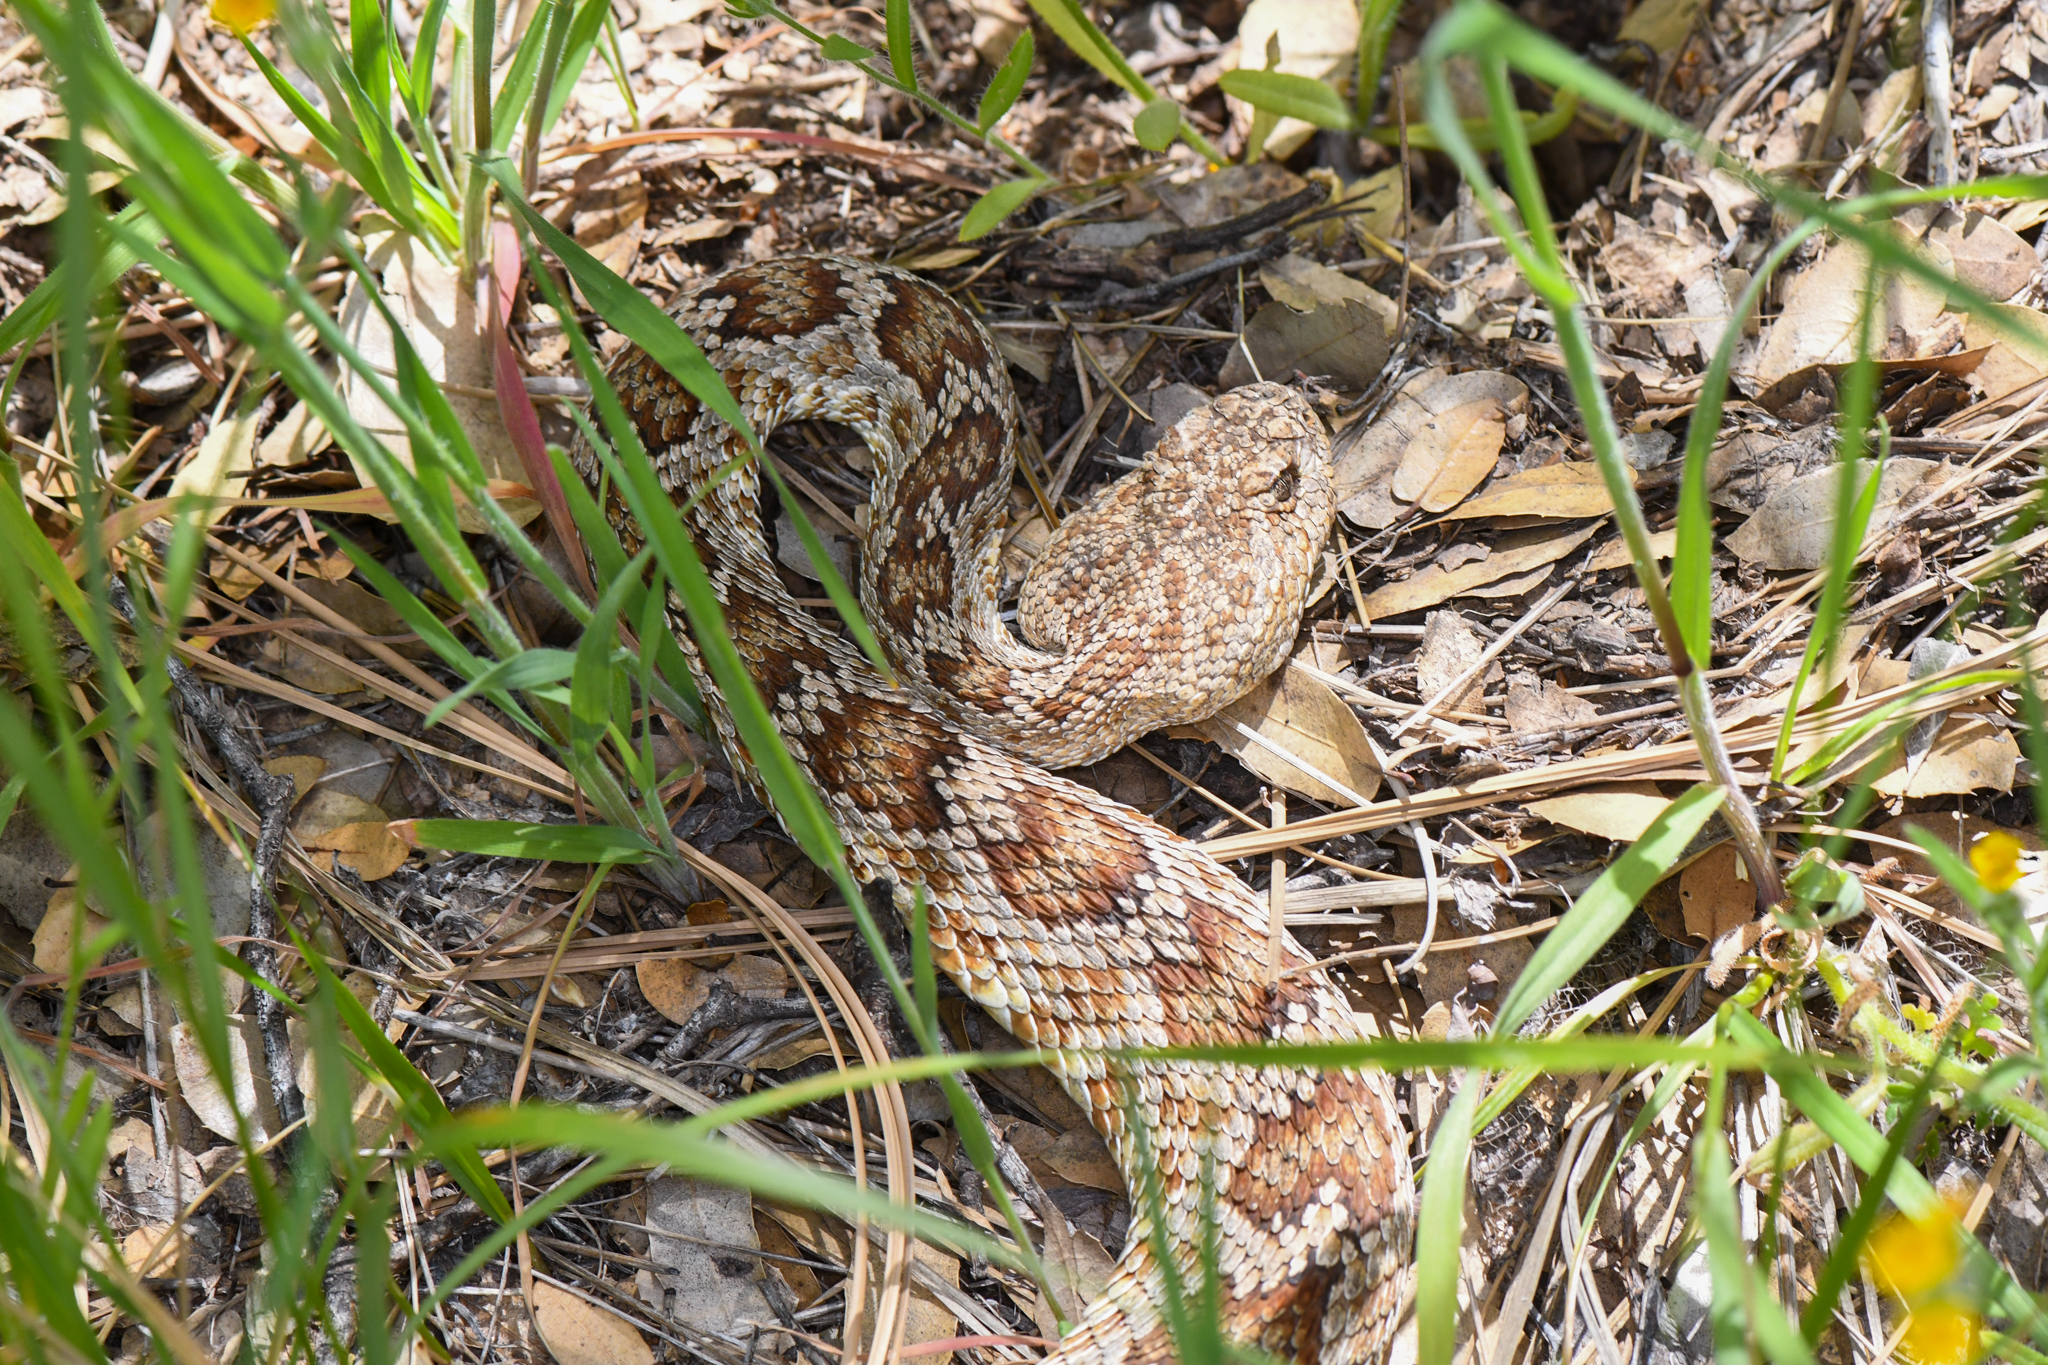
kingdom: Animalia
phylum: Chordata
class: Squamata
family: Viperidae
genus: Crotalus
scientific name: Crotalus oreganus
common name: Abyssus
